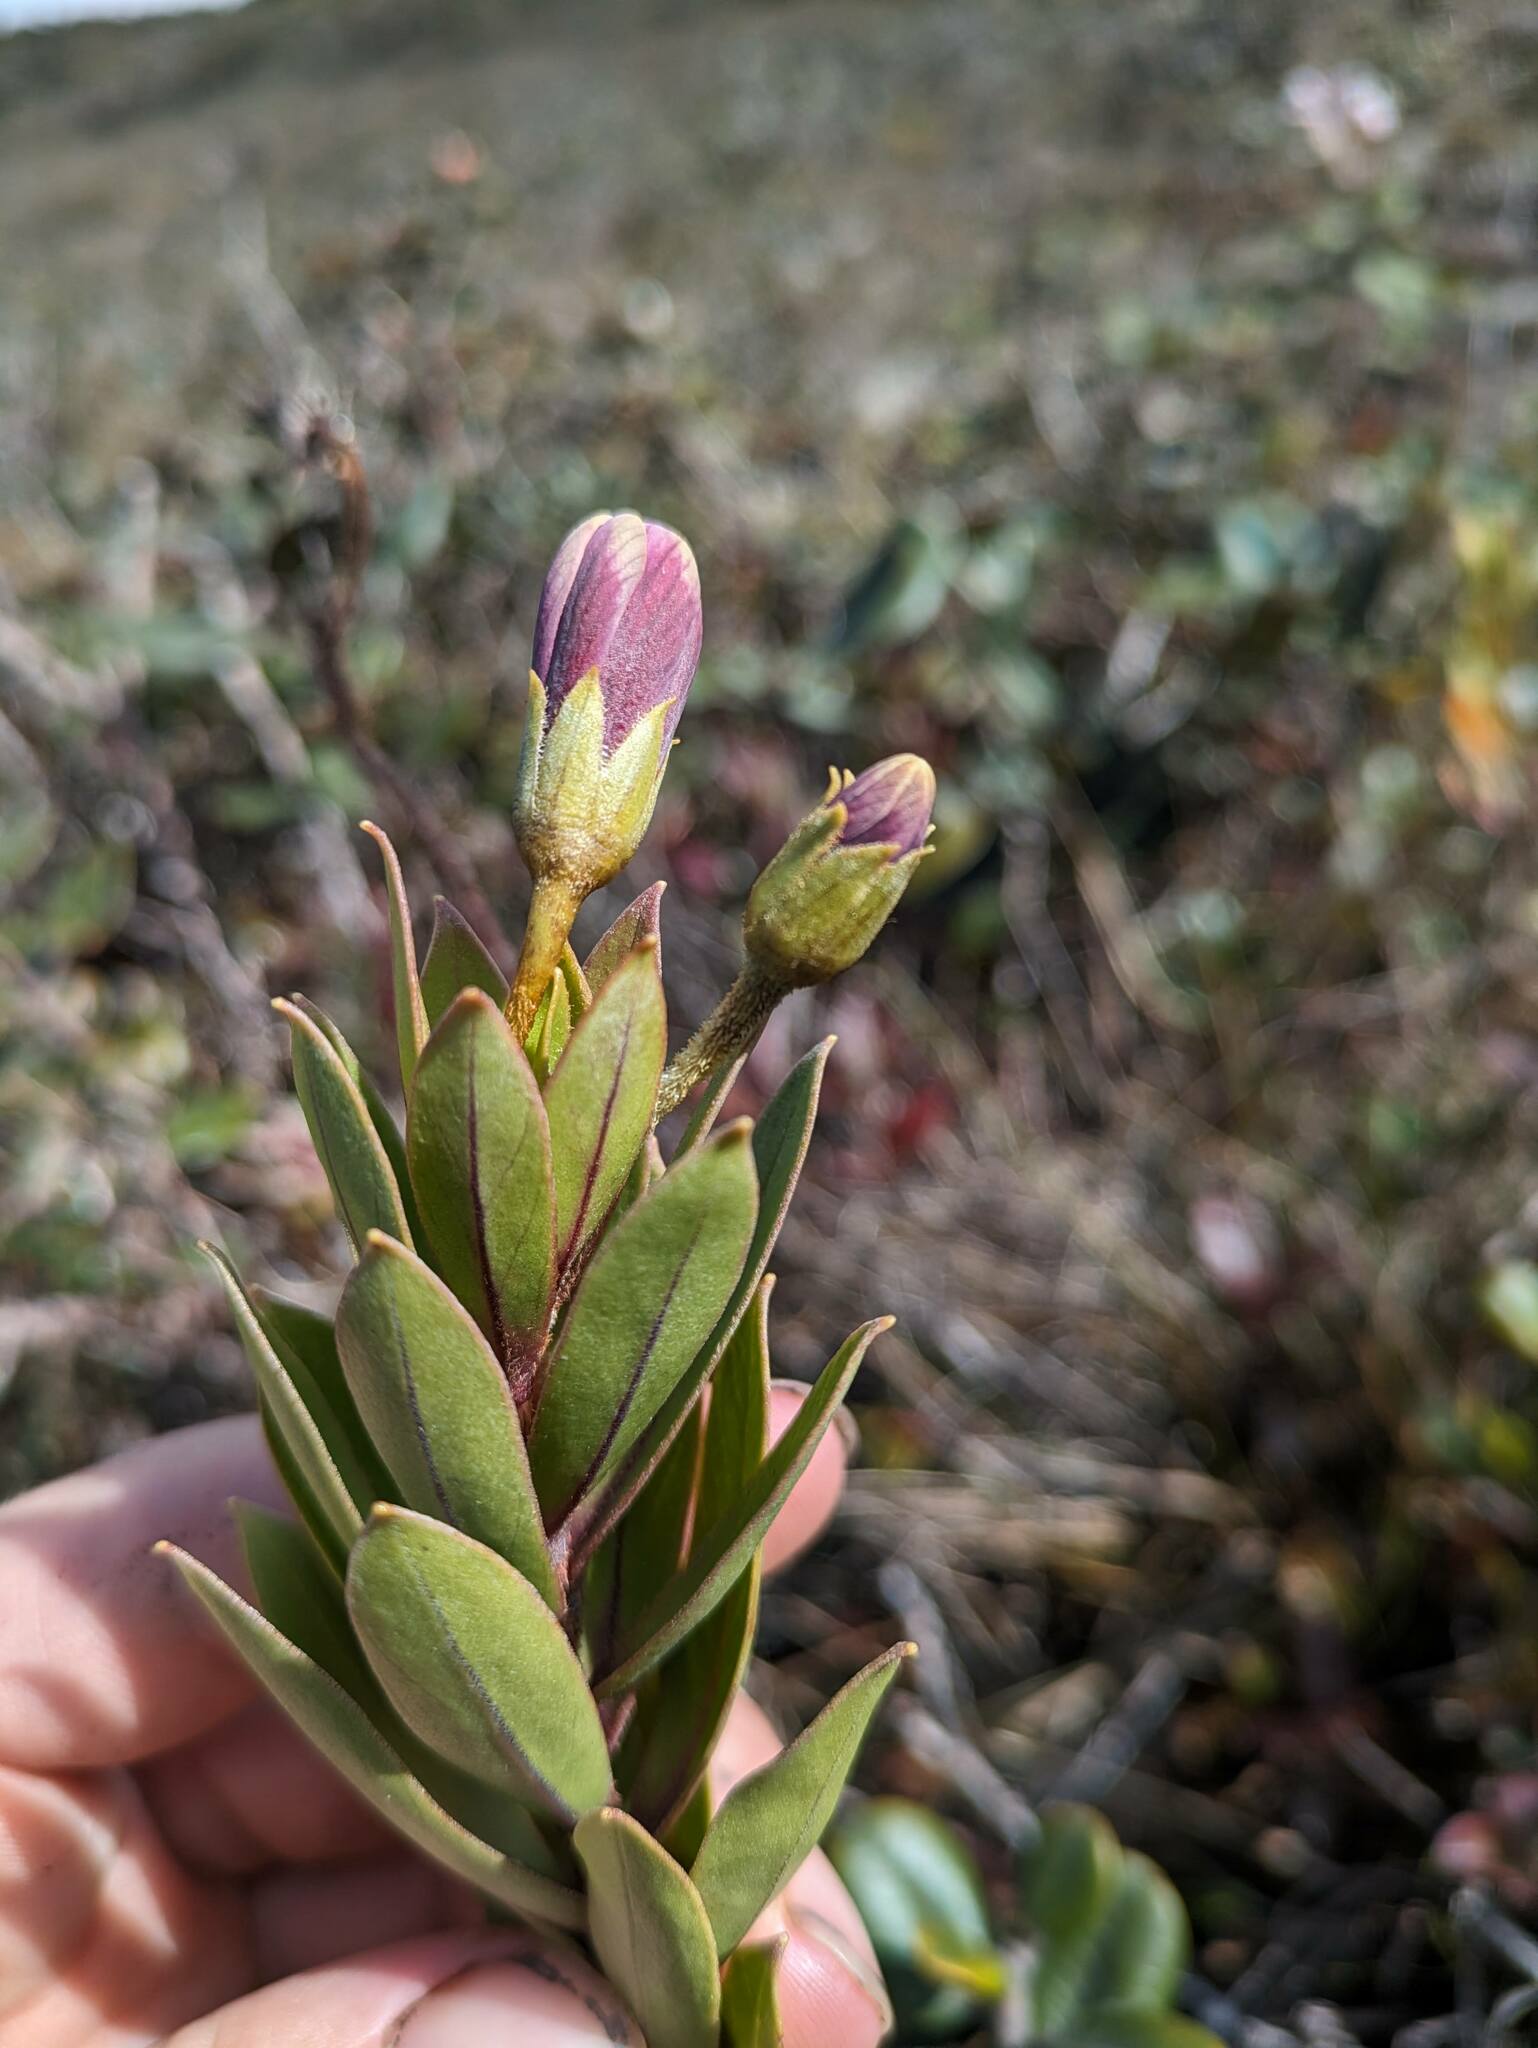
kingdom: Plantae
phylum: Tracheophyta
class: Magnoliopsida
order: Ericales
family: Primulaceae
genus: Lysimachia
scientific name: Lysimachia daphnoides
